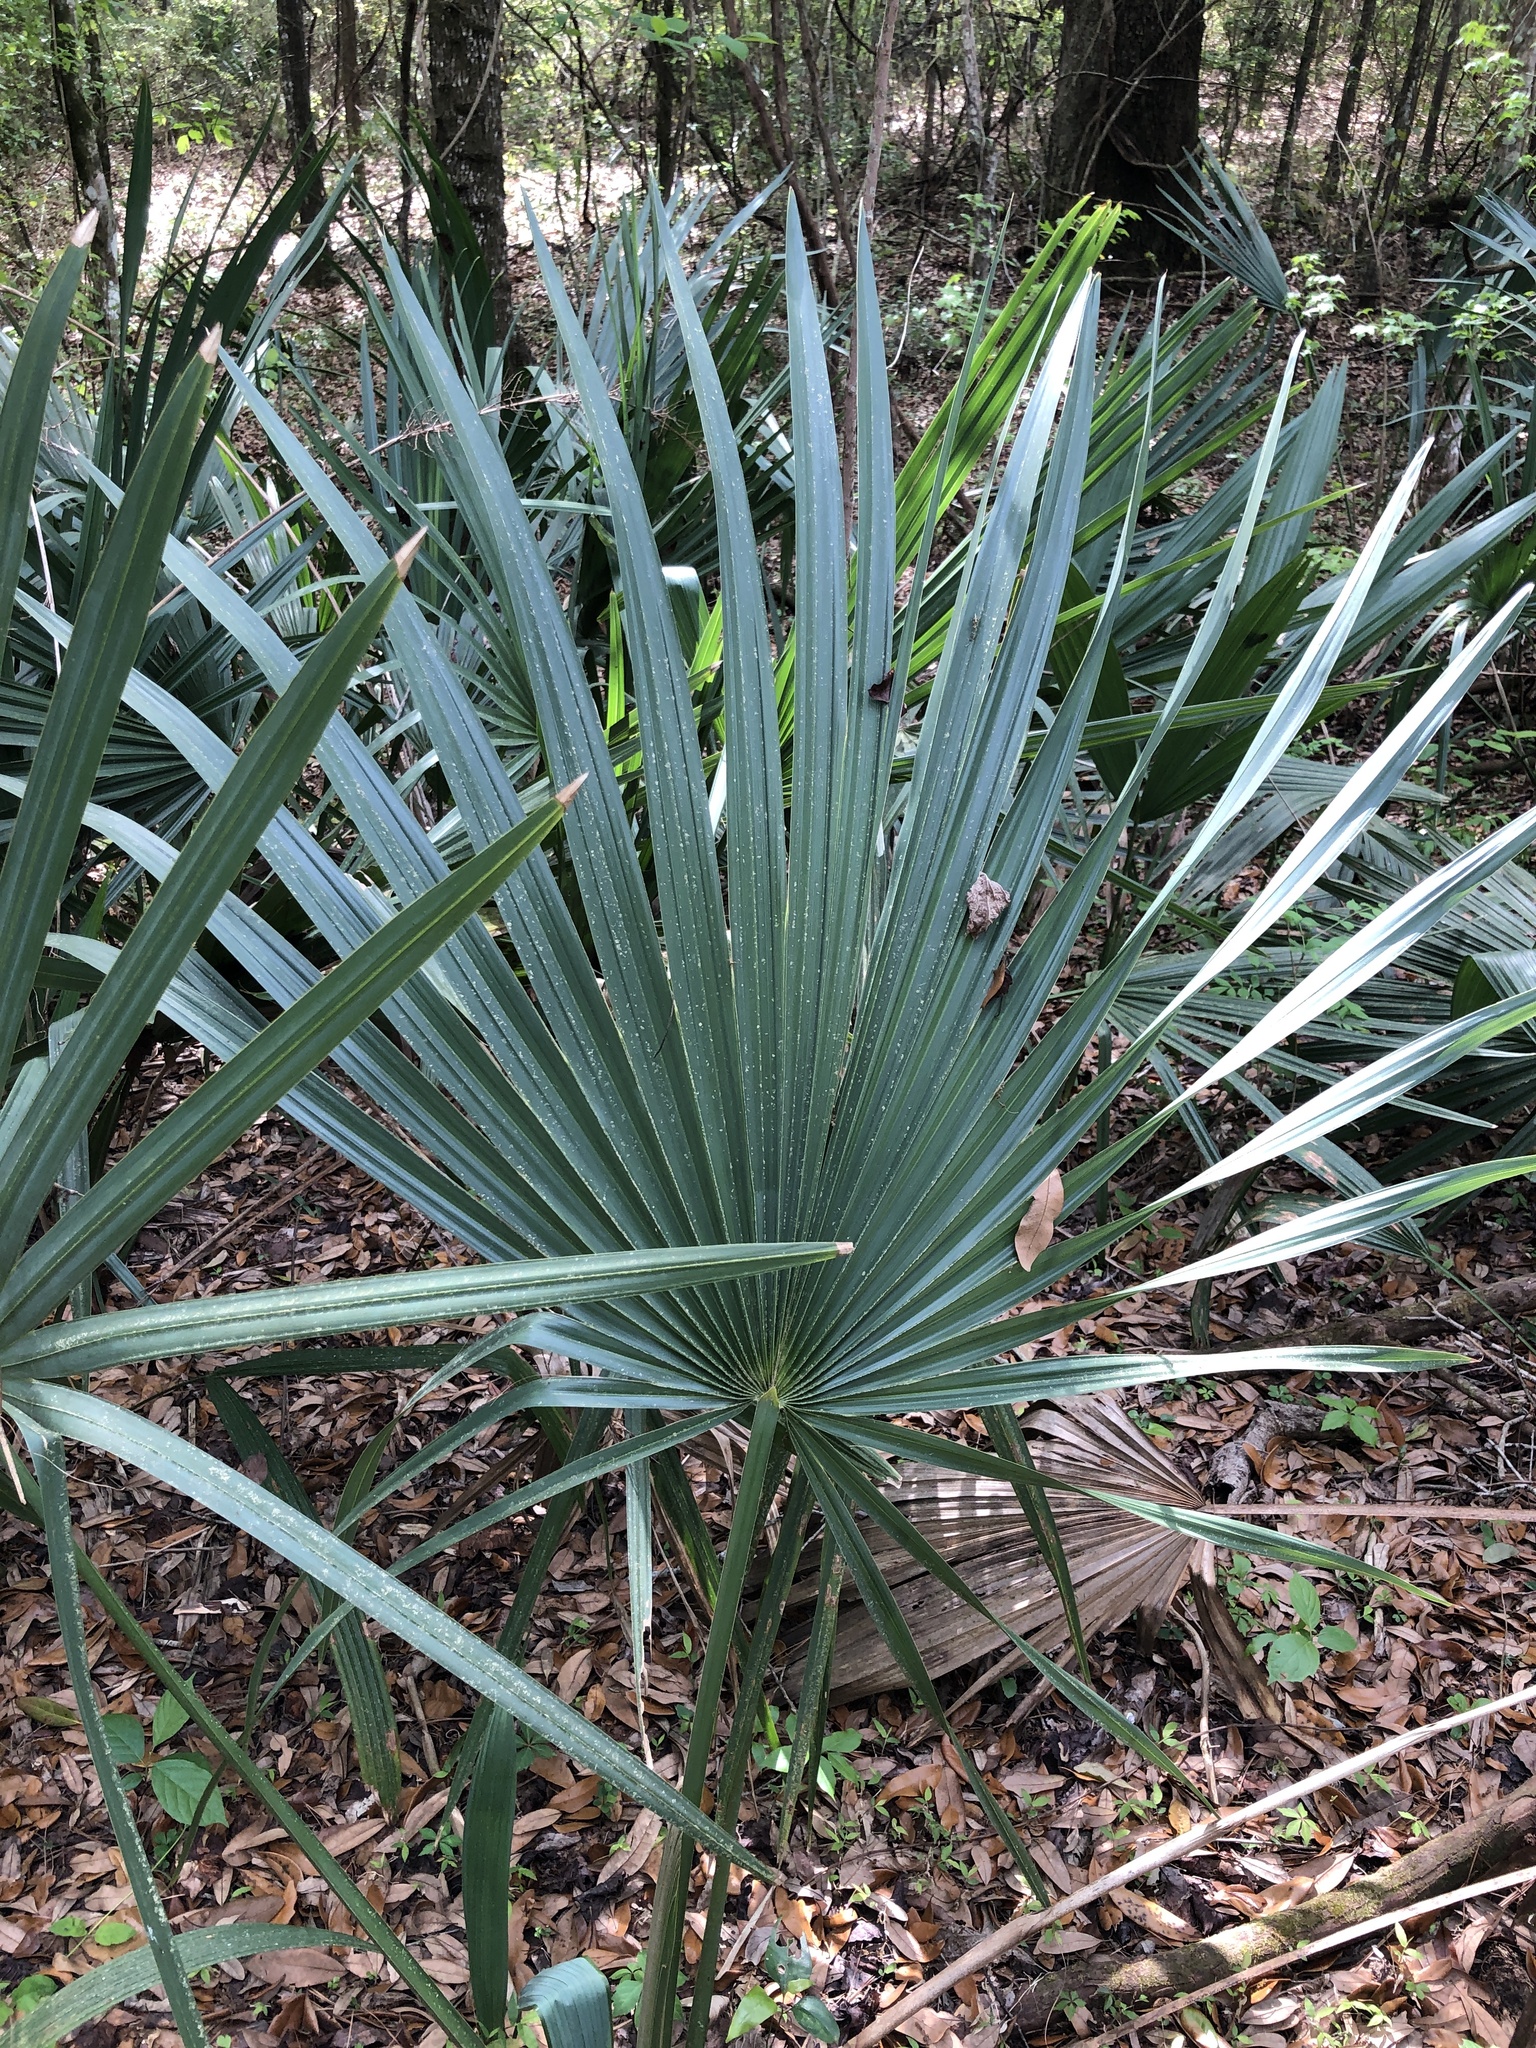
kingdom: Plantae
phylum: Tracheophyta
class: Liliopsida
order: Arecales
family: Arecaceae
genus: Sabal
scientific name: Sabal minor
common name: Dwarf palmetto
